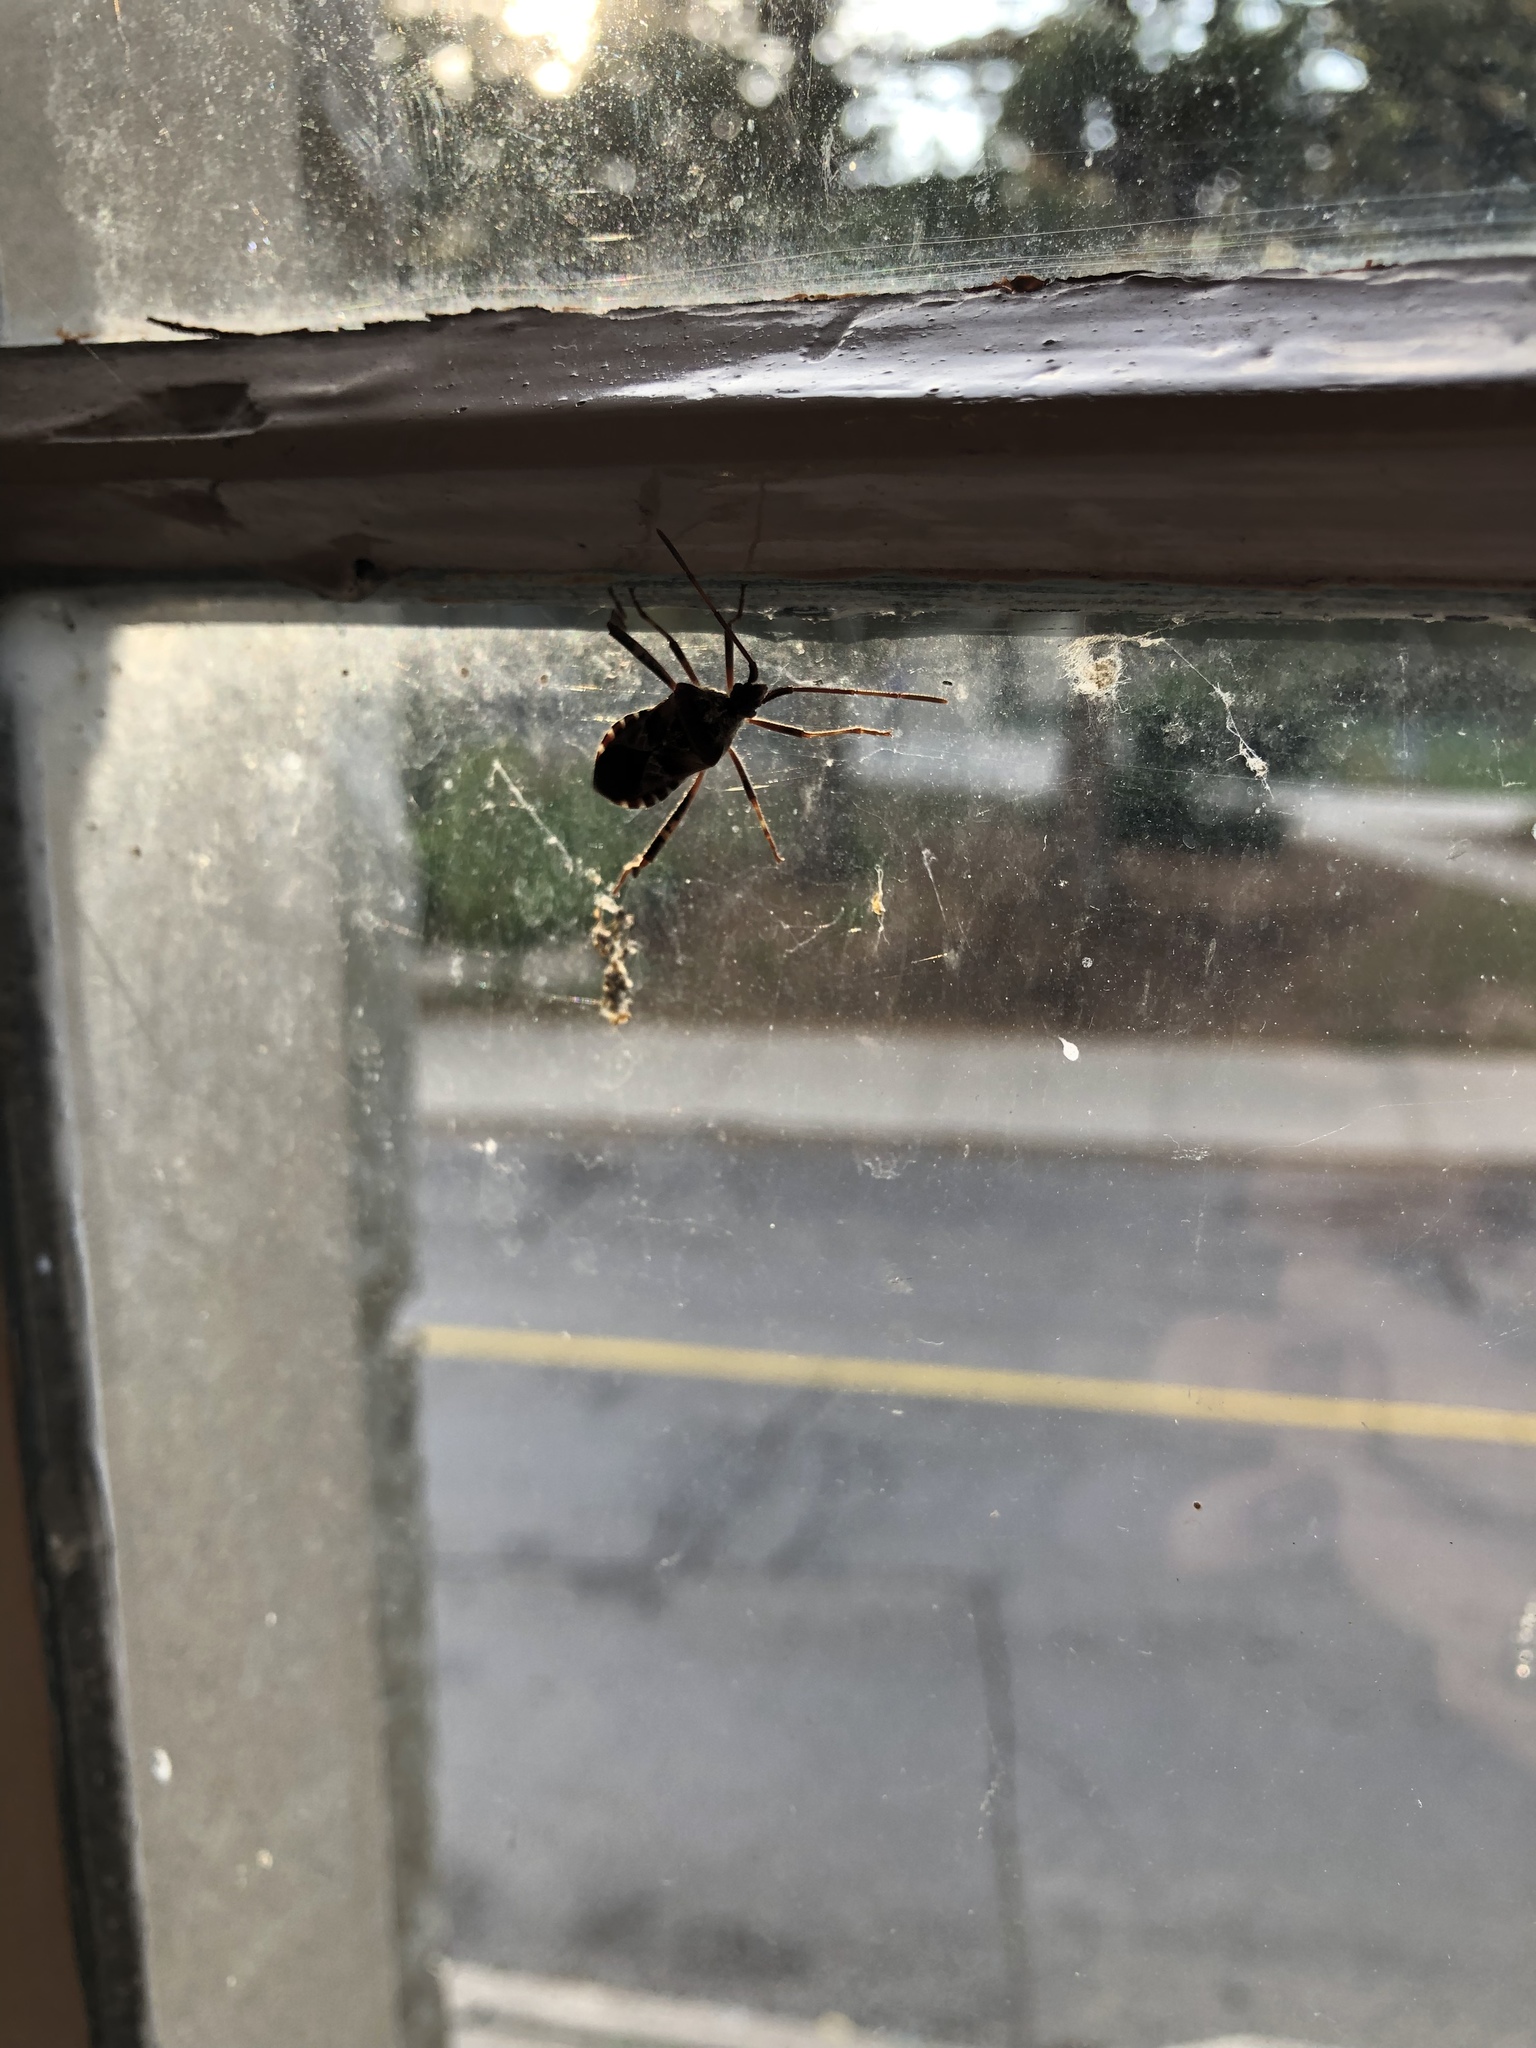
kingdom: Animalia
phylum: Arthropoda
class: Insecta
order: Hemiptera
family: Coreidae
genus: Leptoglossus
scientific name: Leptoglossus occidentalis
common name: Western conifer-seed bug
